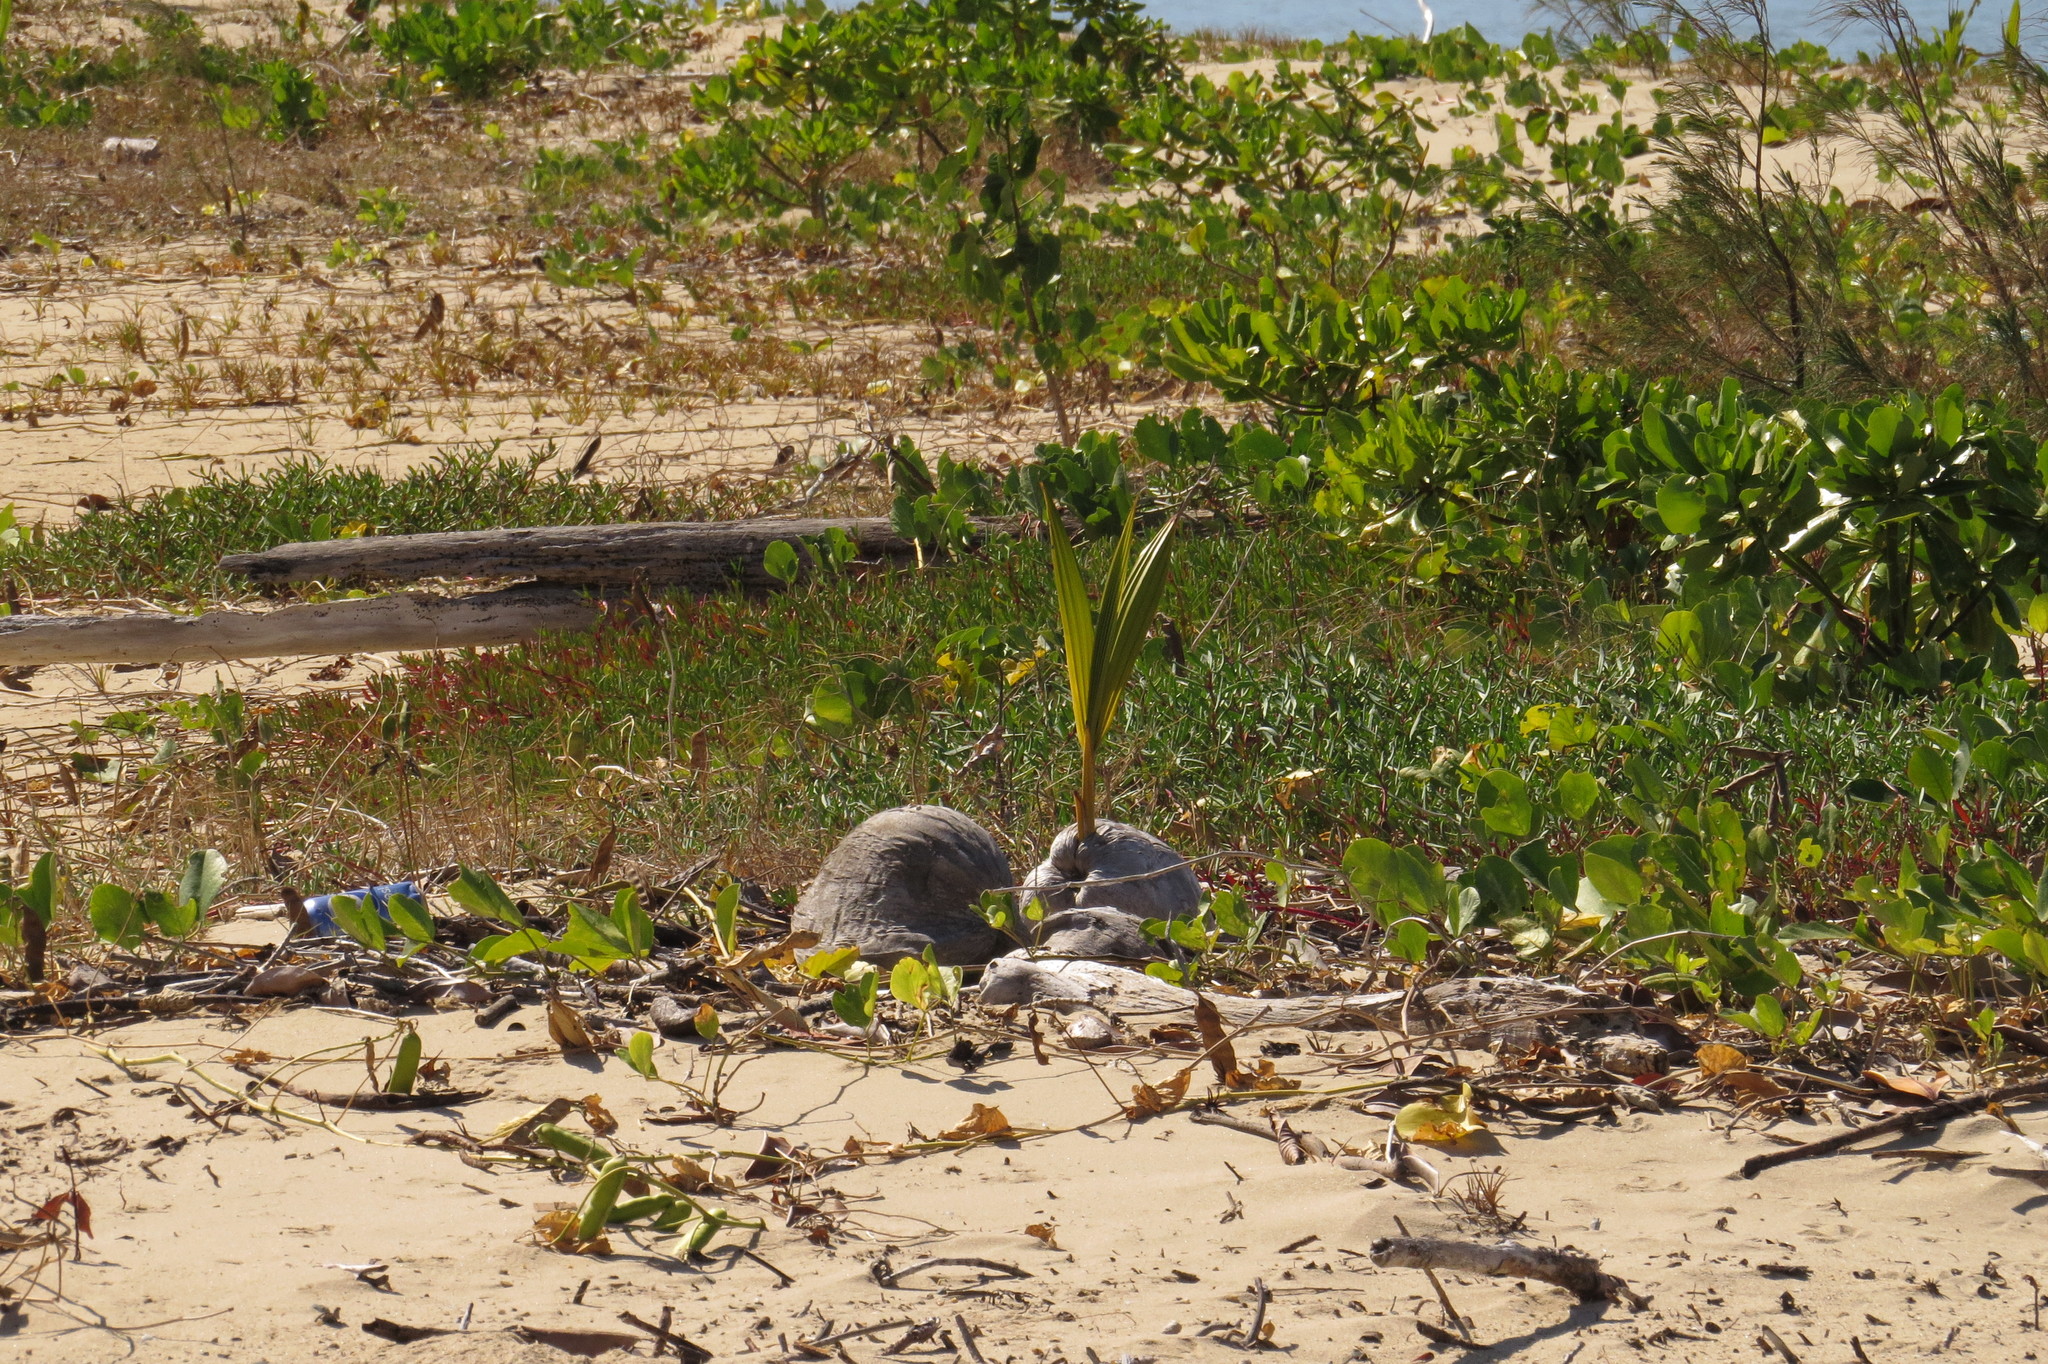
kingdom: Plantae
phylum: Tracheophyta
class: Liliopsida
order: Arecales
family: Arecaceae
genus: Cocos
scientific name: Cocos nucifera
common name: Coconut palm
